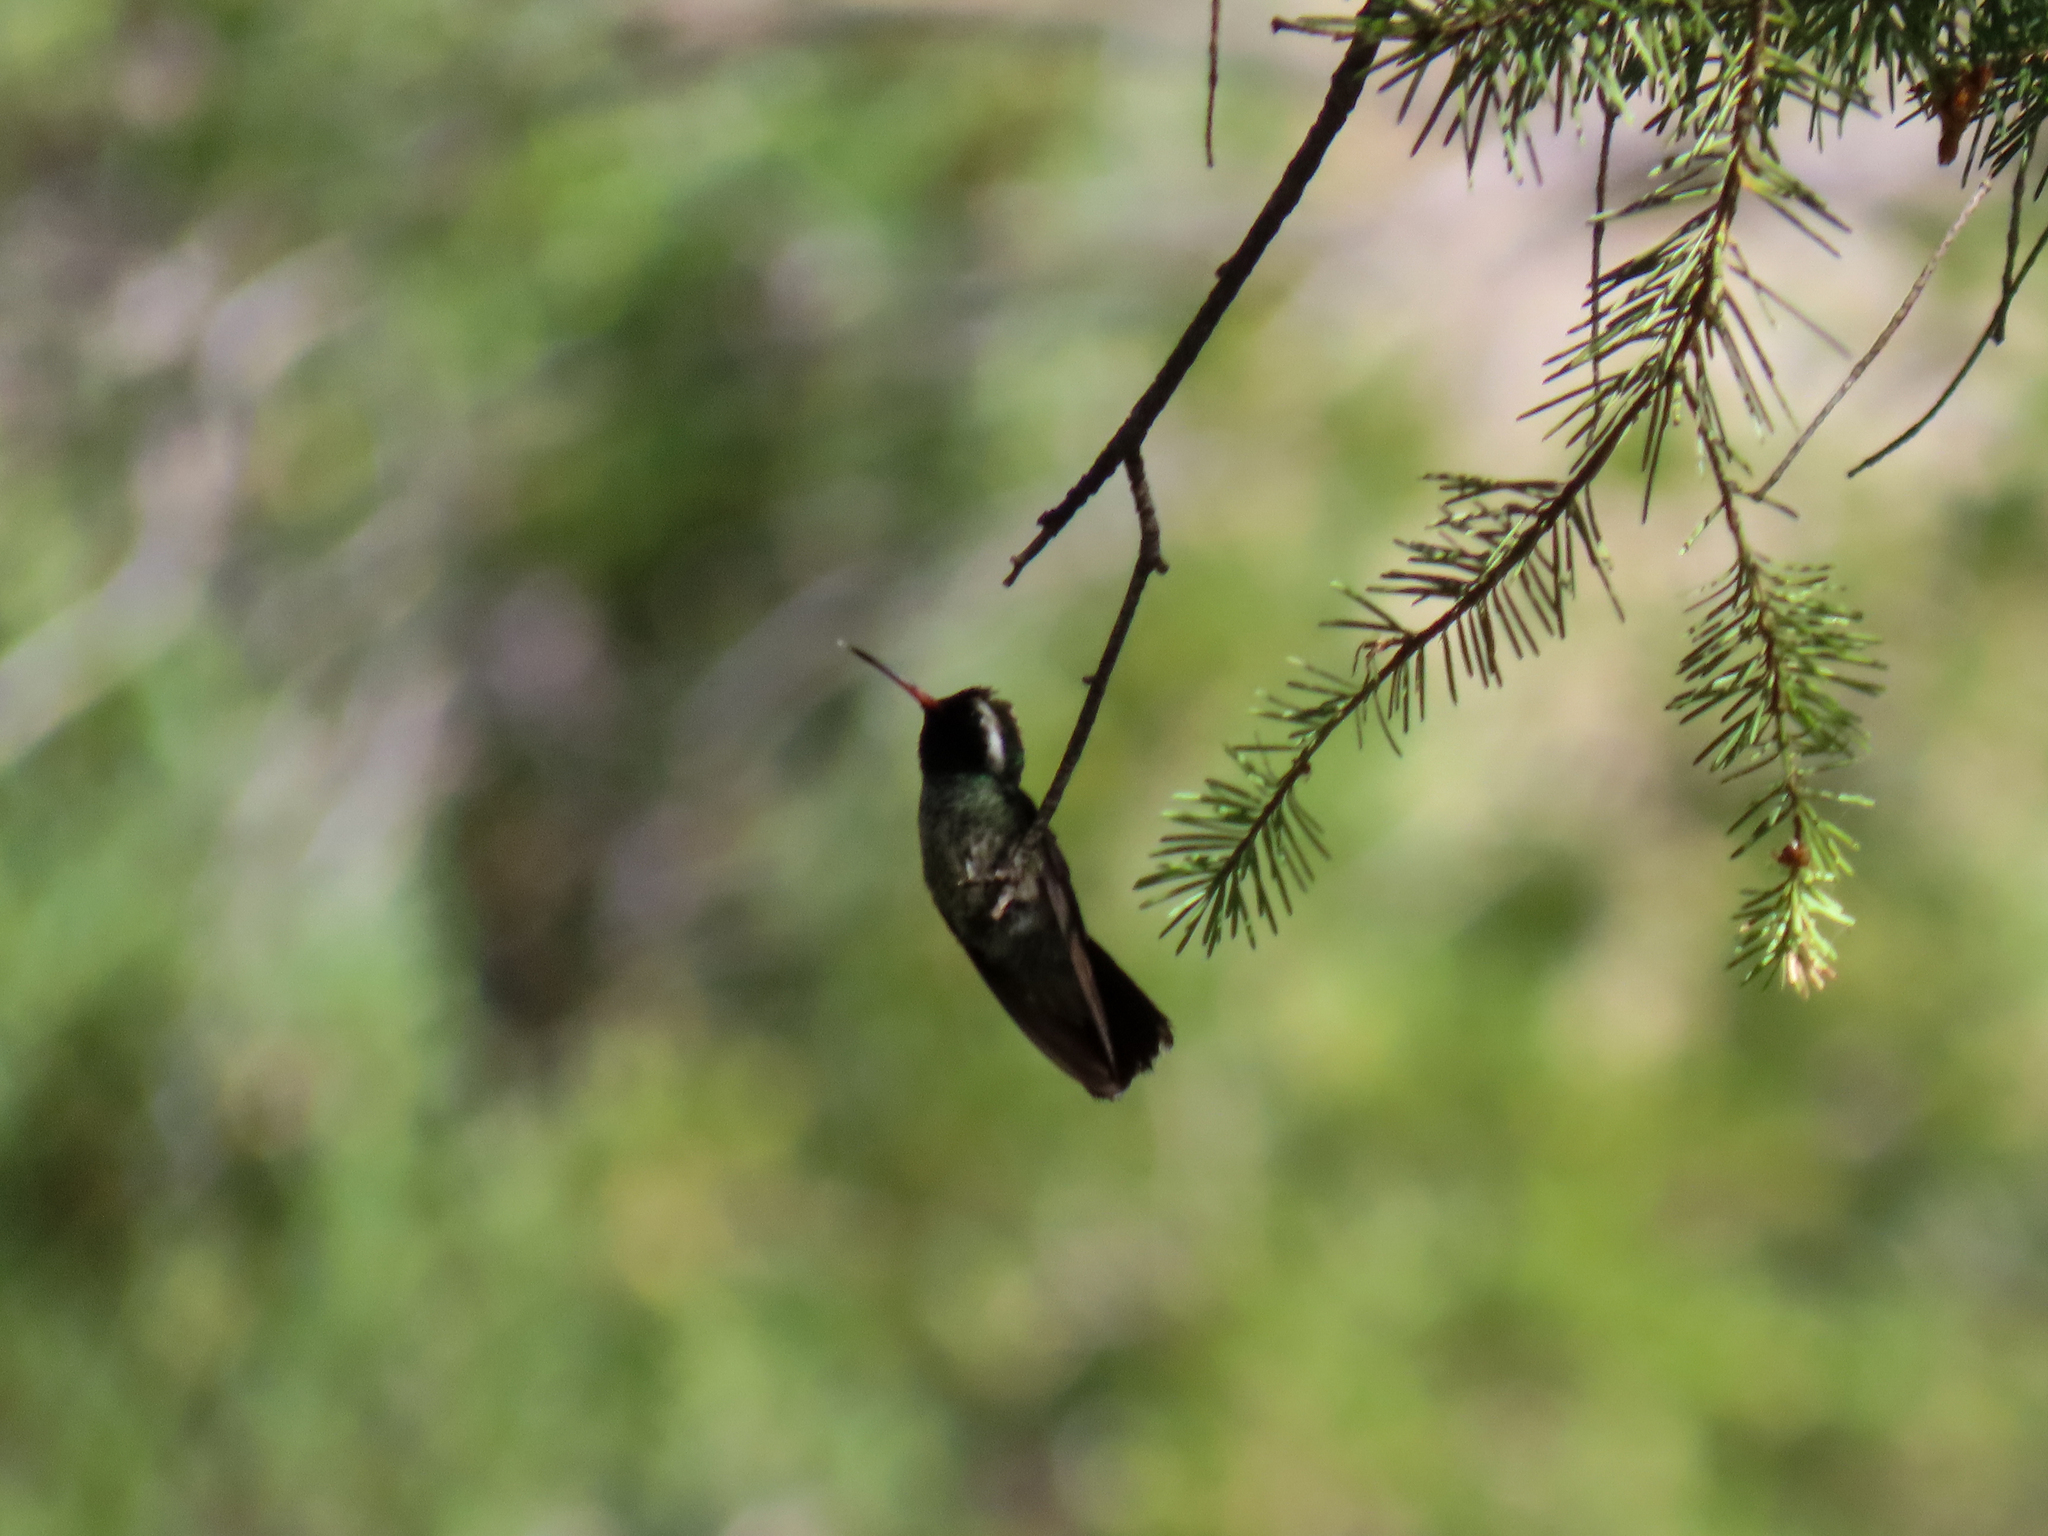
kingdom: Animalia
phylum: Chordata
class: Aves
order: Apodiformes
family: Trochilidae
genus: Basilinna
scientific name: Basilinna leucotis
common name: White-eared hummingbird
